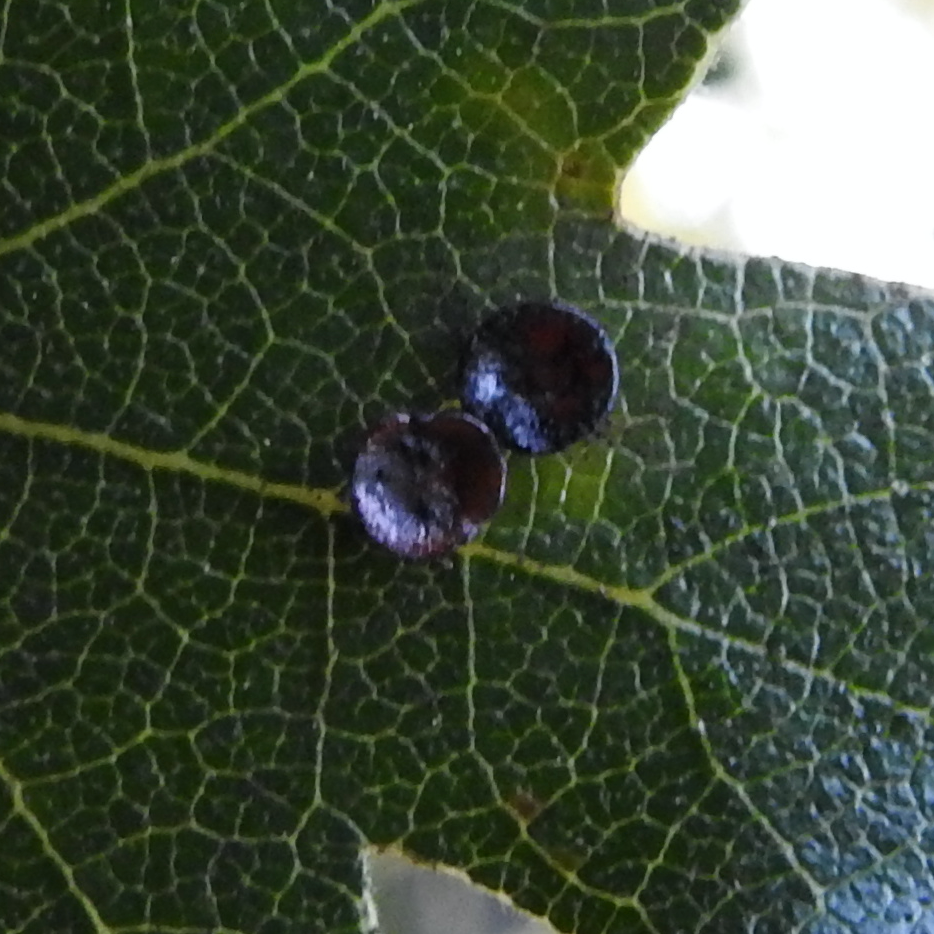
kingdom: Animalia
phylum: Arthropoda
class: Insecta
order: Hymenoptera
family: Cynipidae
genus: Andricus
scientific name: Andricus
